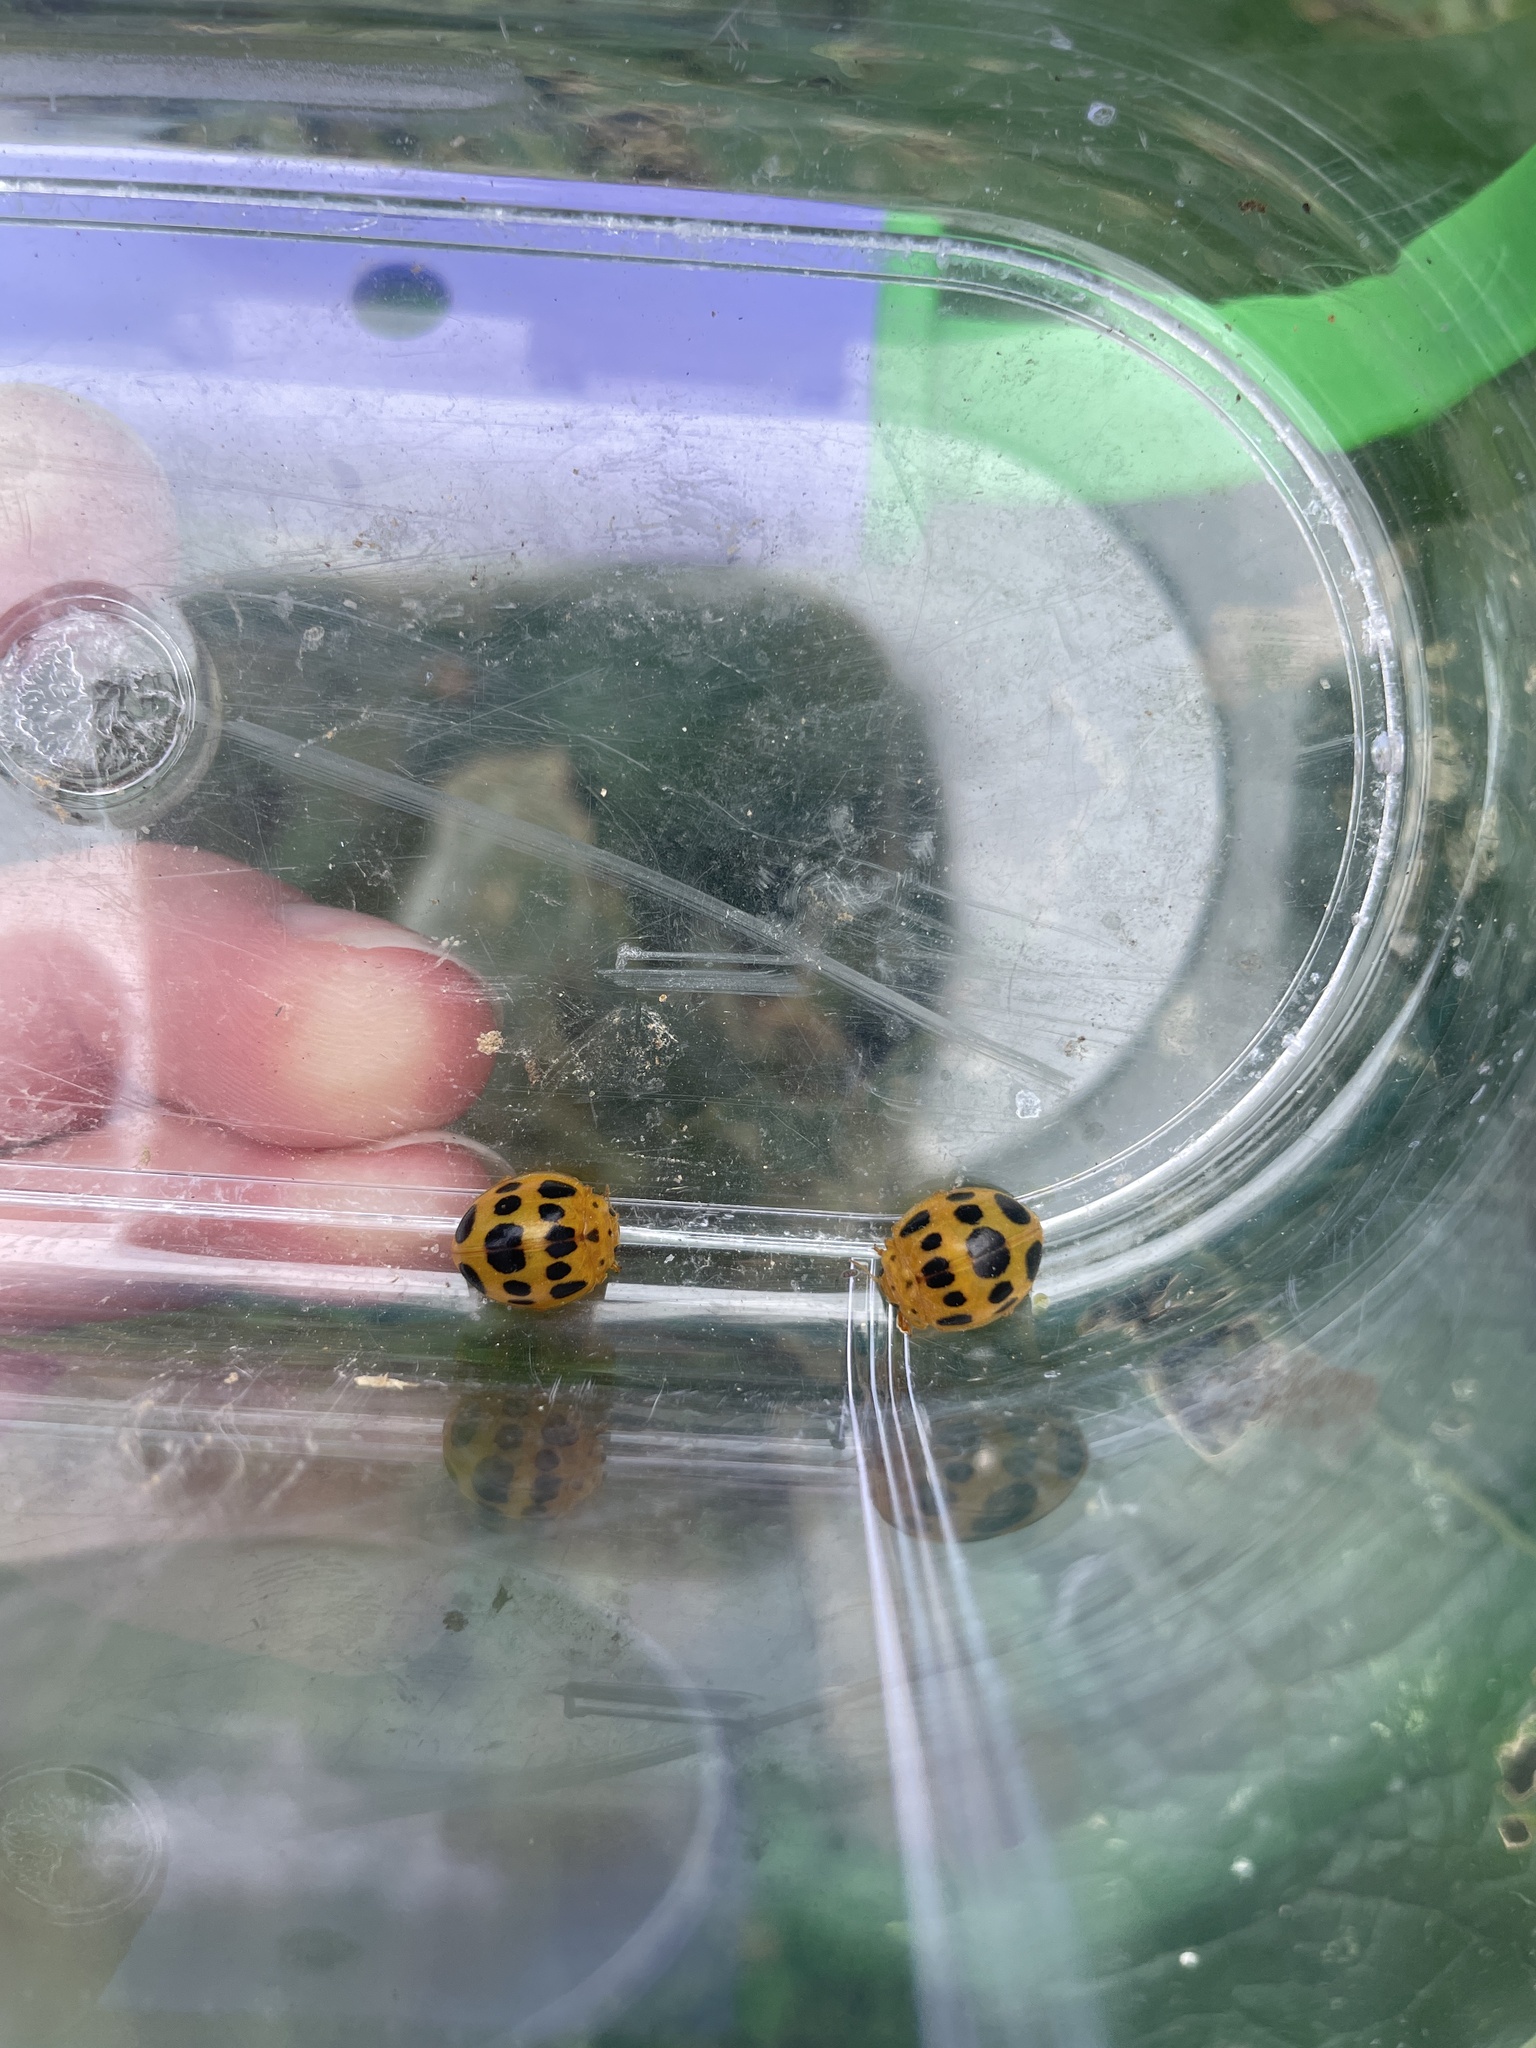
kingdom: Animalia
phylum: Arthropoda
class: Insecta
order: Coleoptera
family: Coccinellidae
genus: Epilachna
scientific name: Epilachna borealis
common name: Squash beetle
